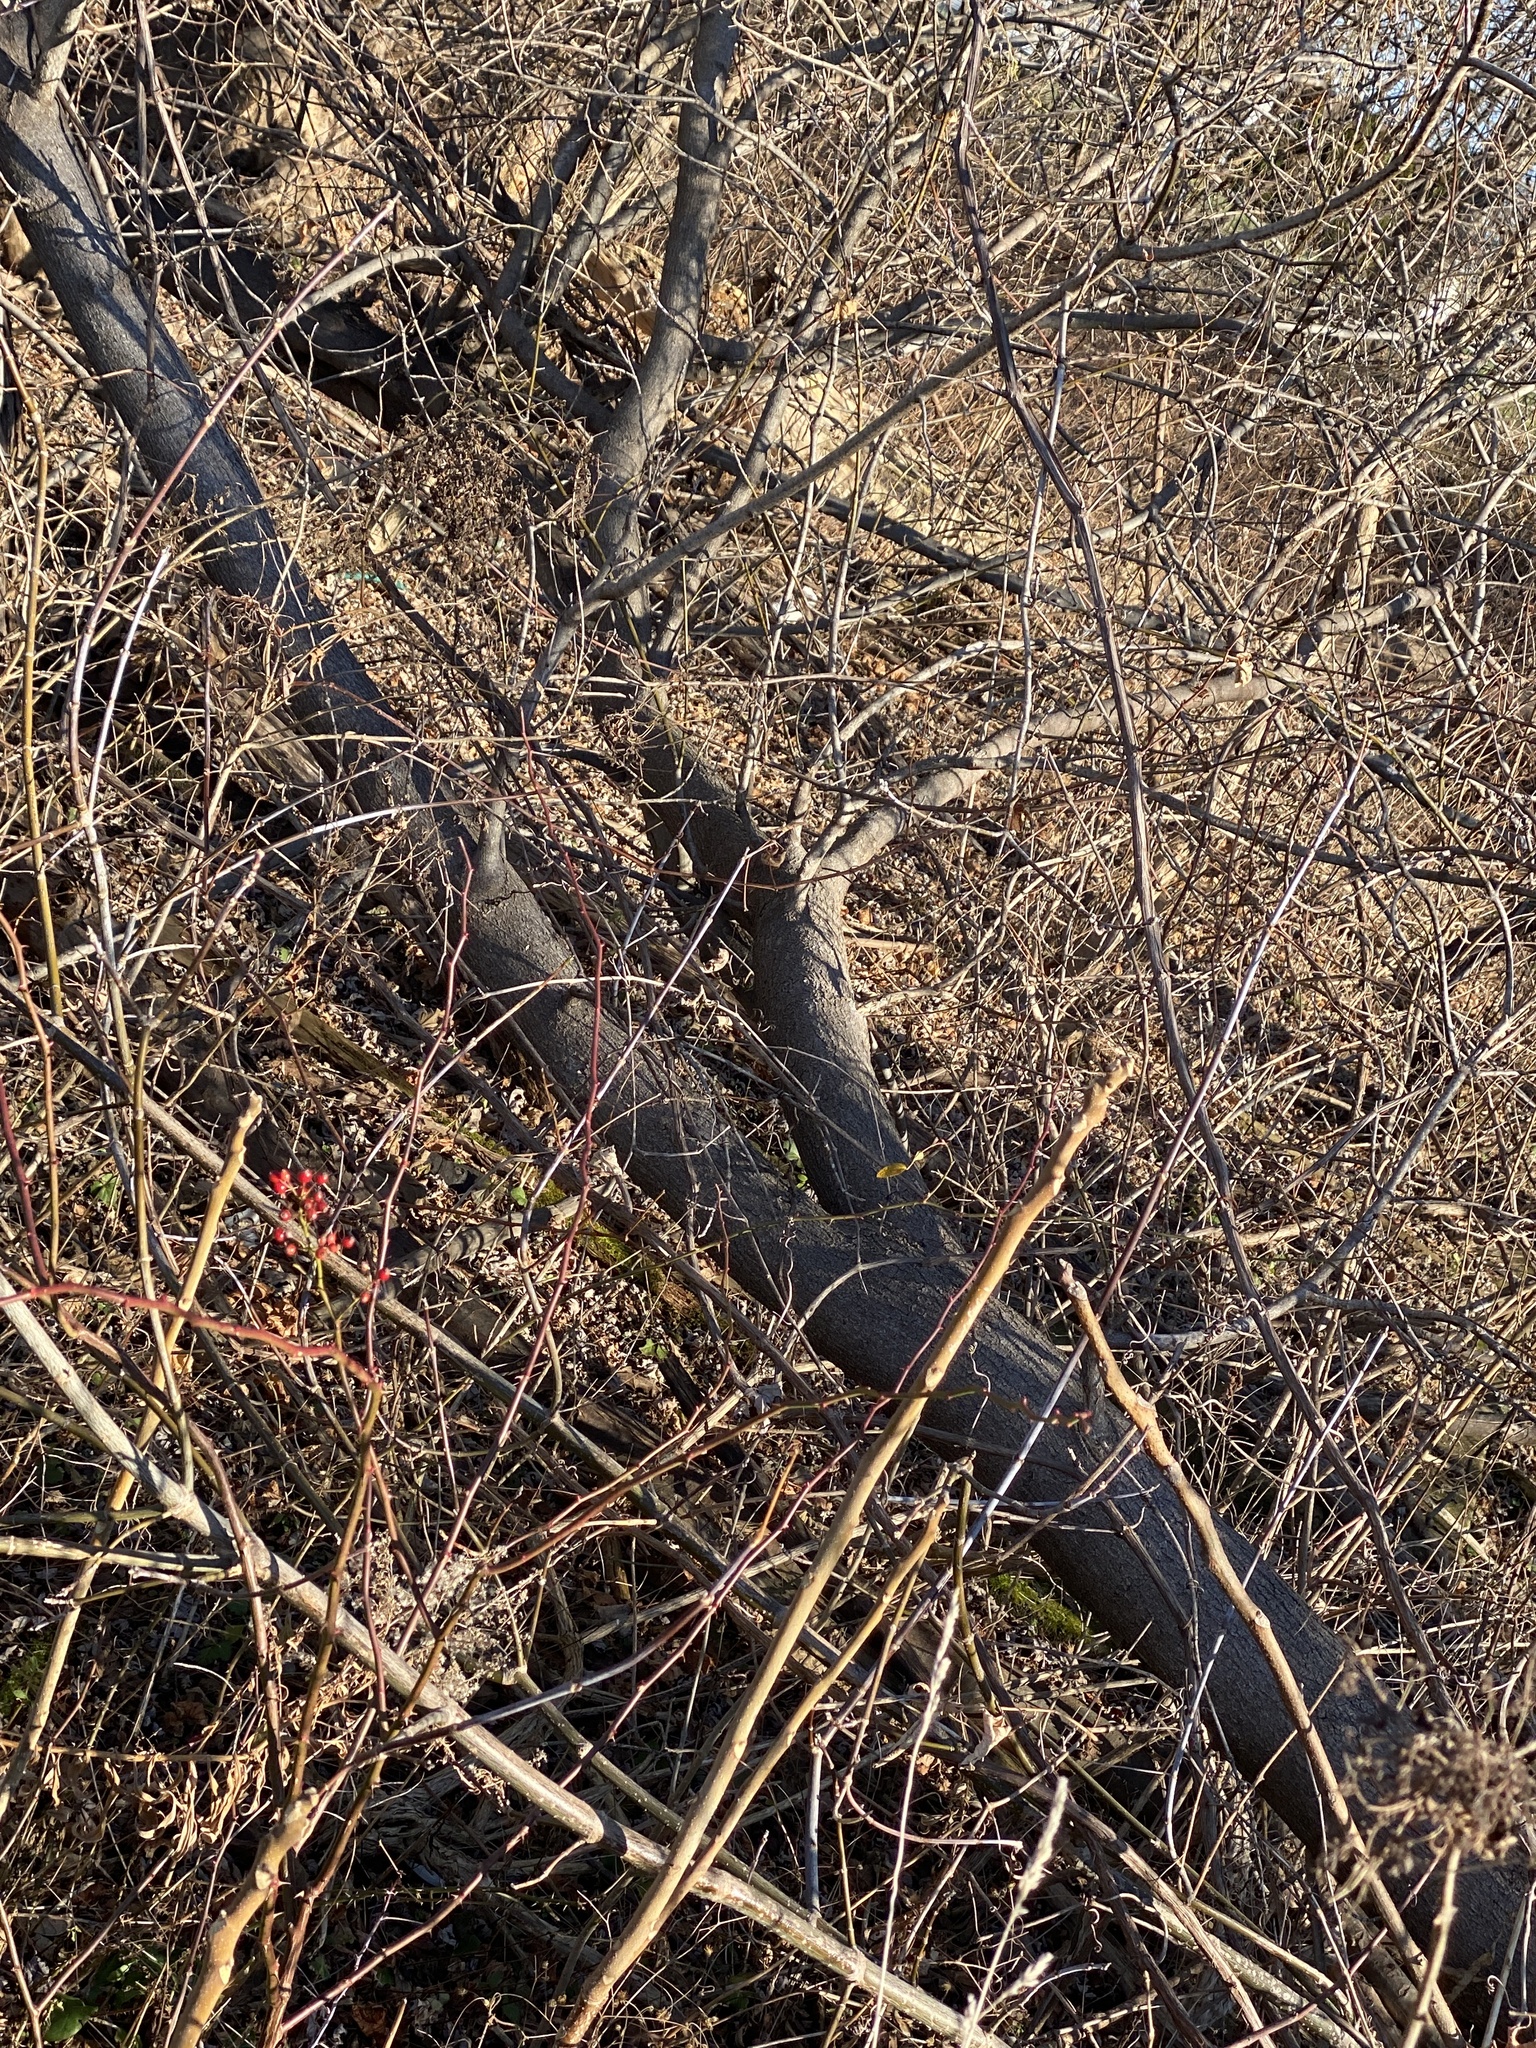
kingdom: Plantae
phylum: Tracheophyta
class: Magnoliopsida
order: Sapindales
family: Sapindaceae
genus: Acer
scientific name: Acer negundo
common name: Ashleaf maple
